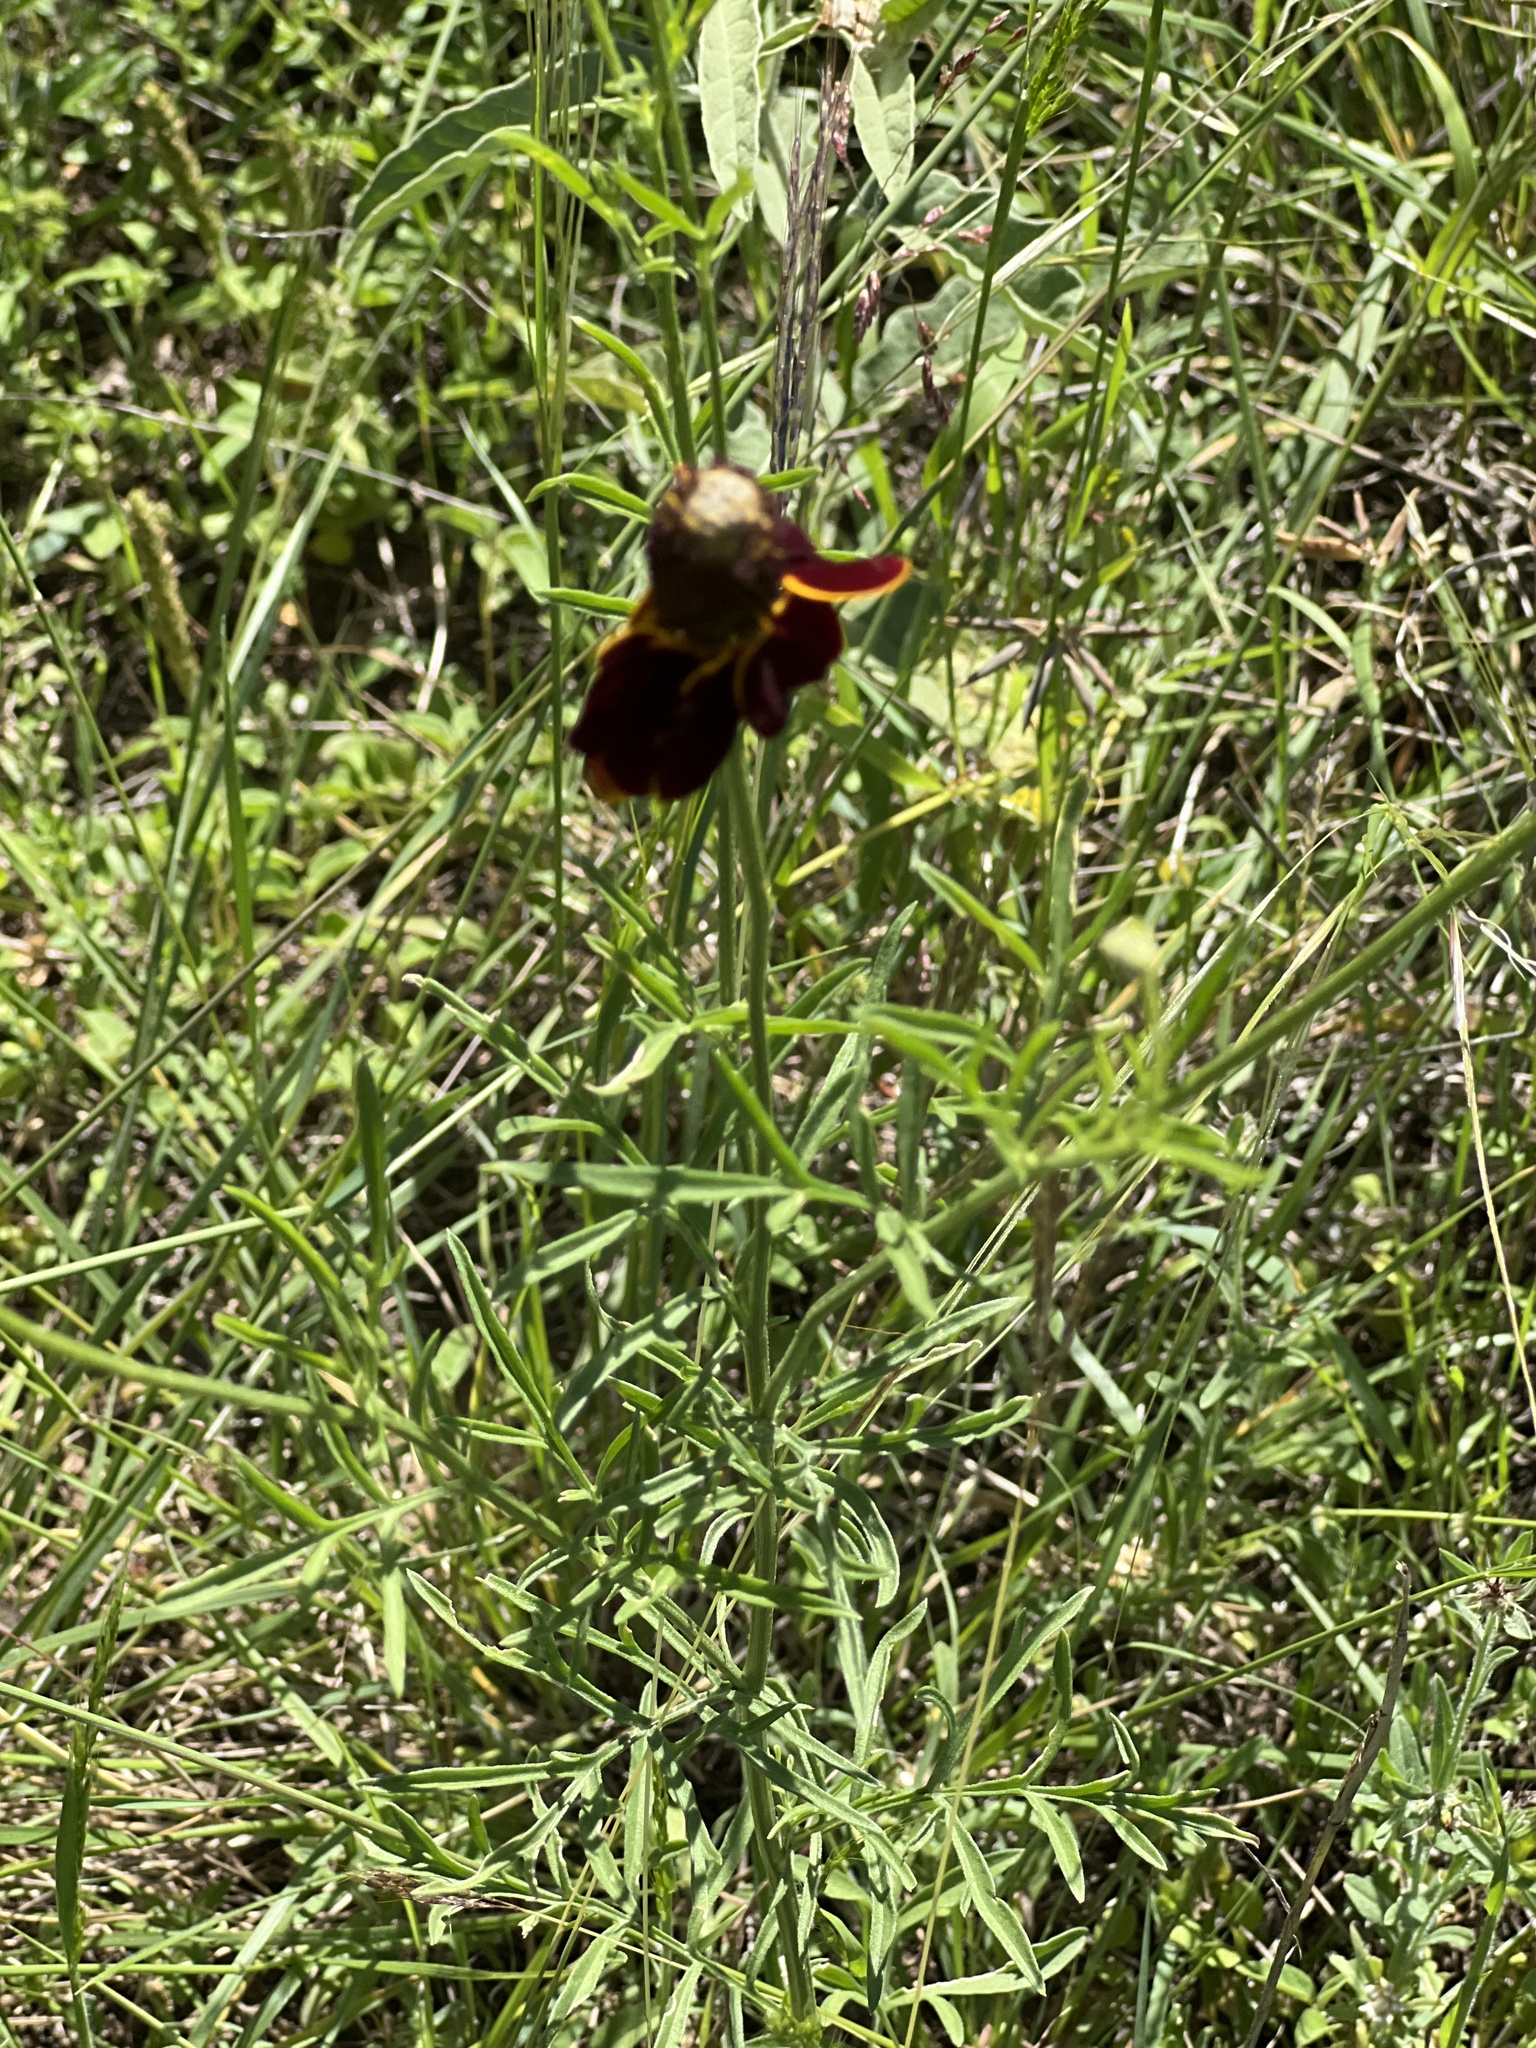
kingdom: Plantae
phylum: Tracheophyta
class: Magnoliopsida
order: Asterales
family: Asteraceae
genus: Ratibida
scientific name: Ratibida columnifera
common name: Prairie coneflower
